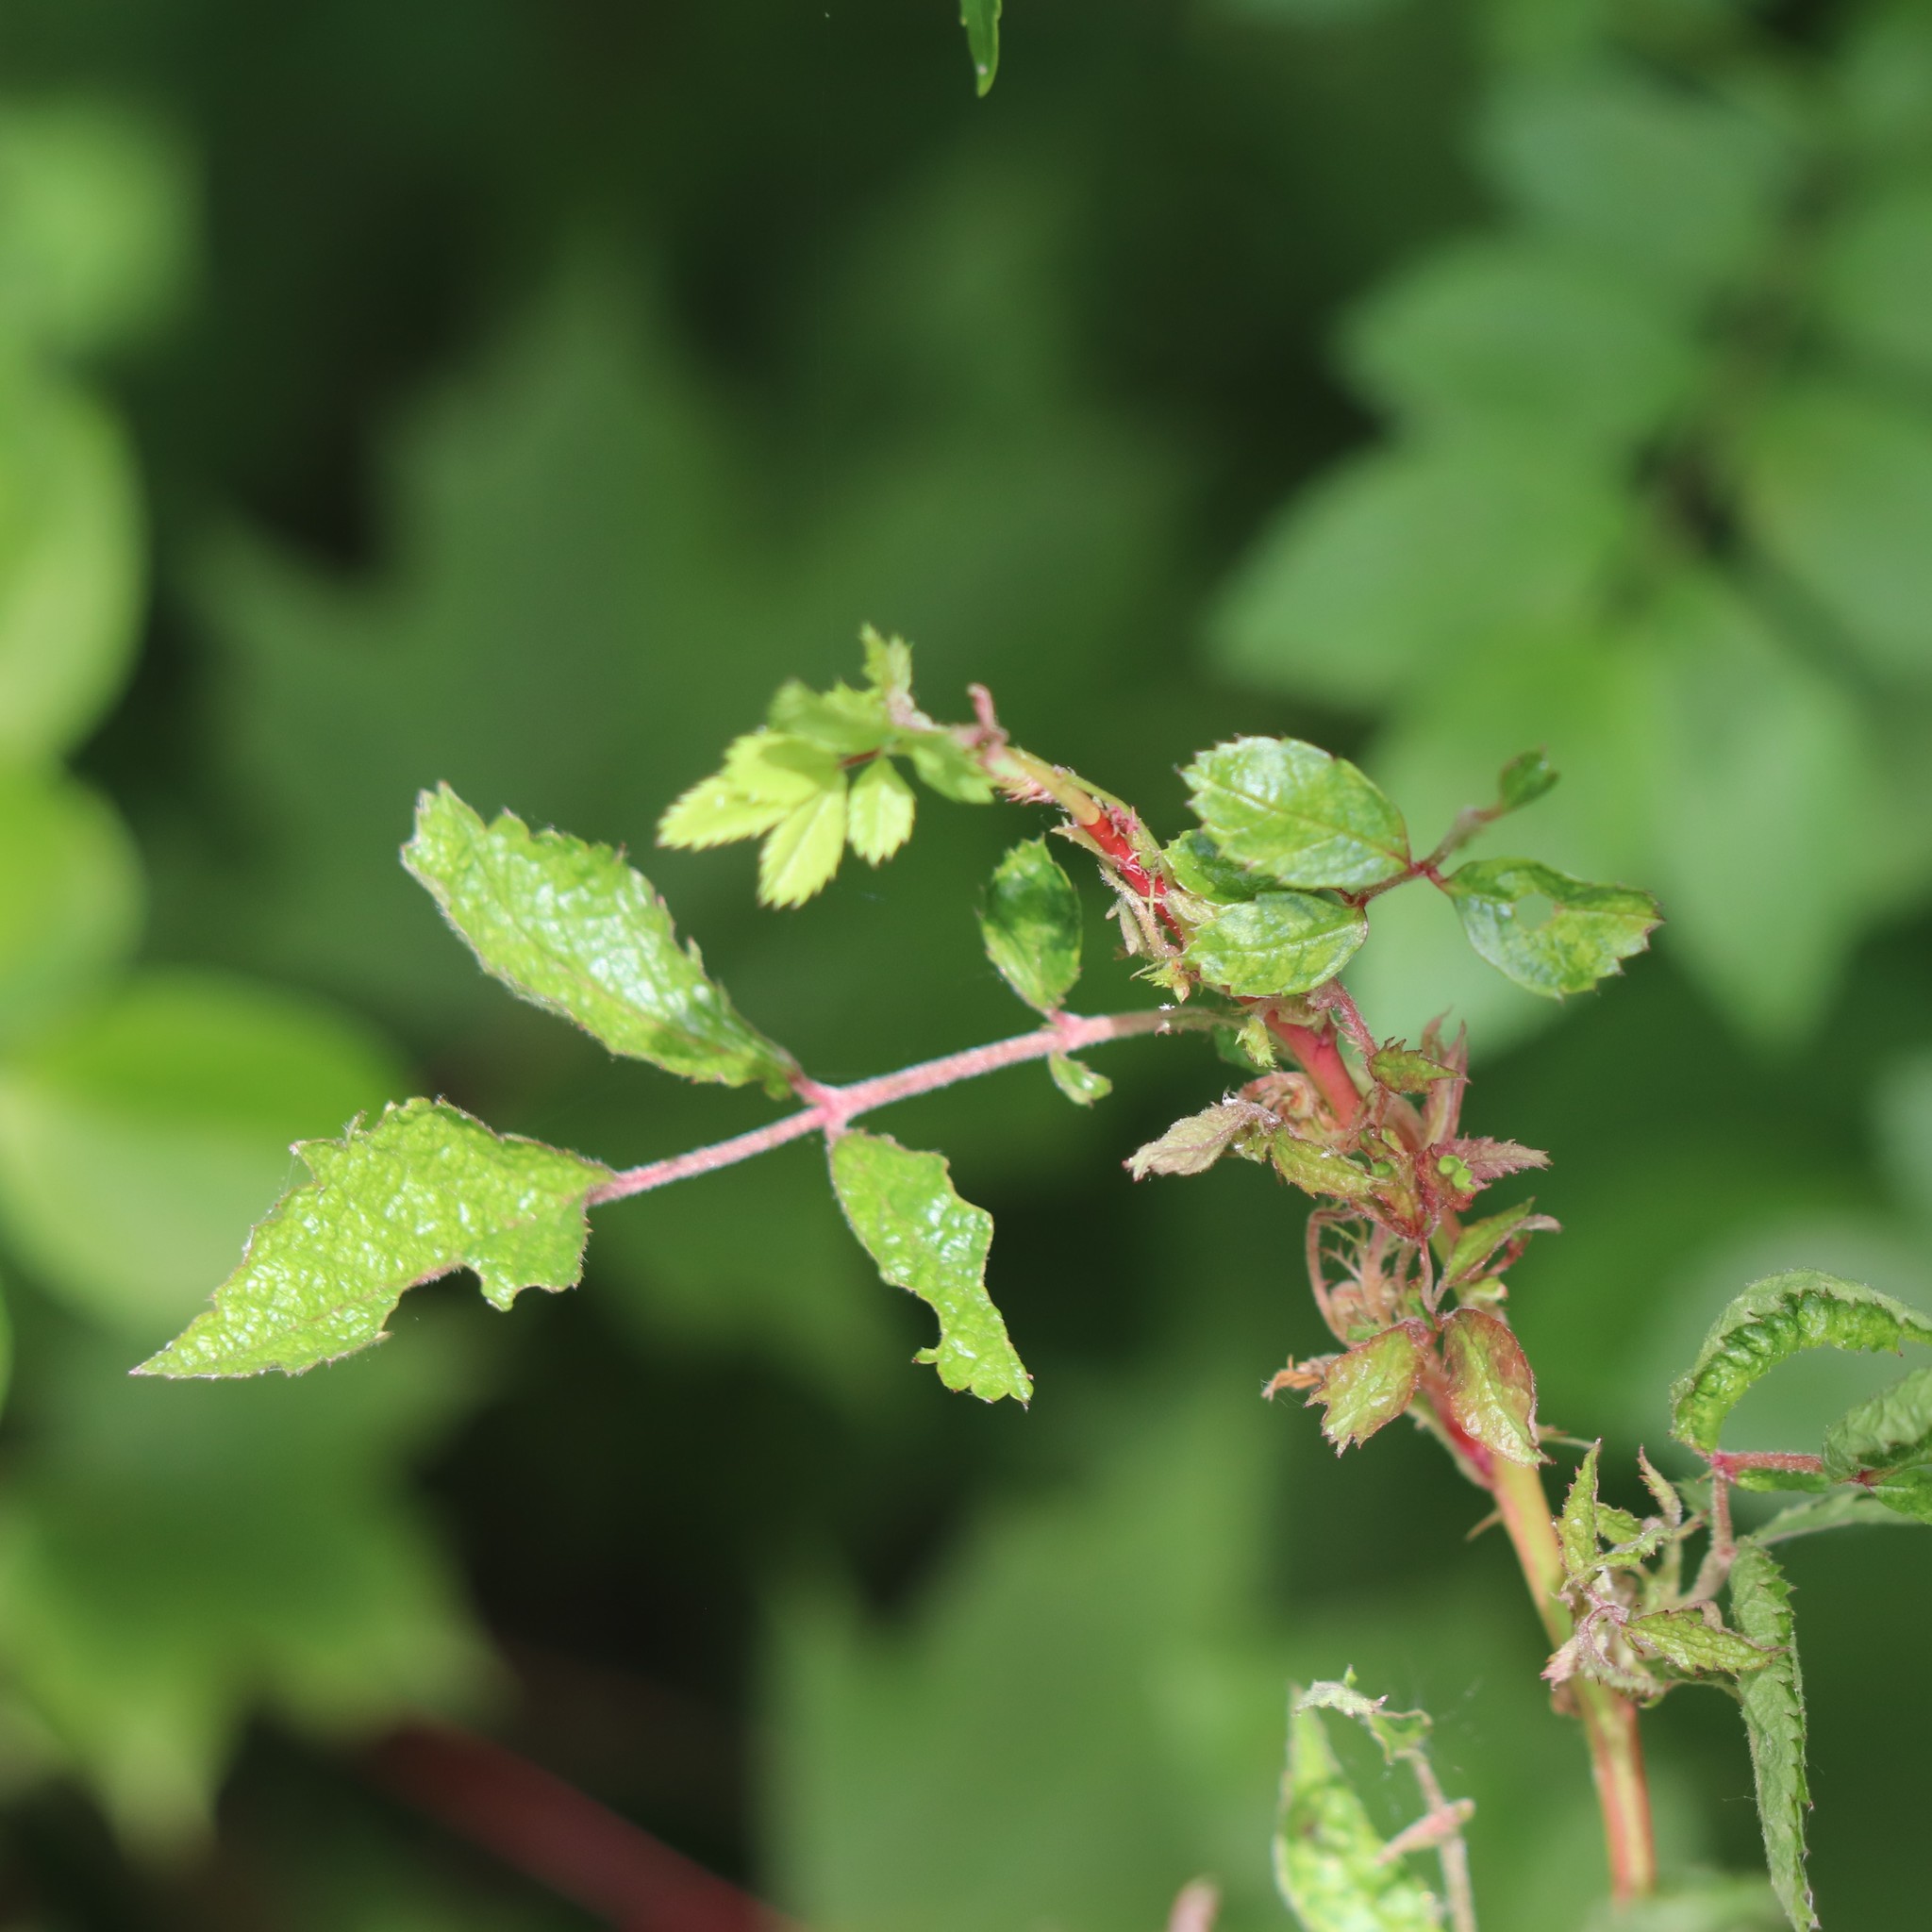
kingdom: Viruses
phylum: Negarnaviricota
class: Ellioviricetes
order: Bunyavirales
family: Fimoviridae
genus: Emaravirus
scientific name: Emaravirus rosae
